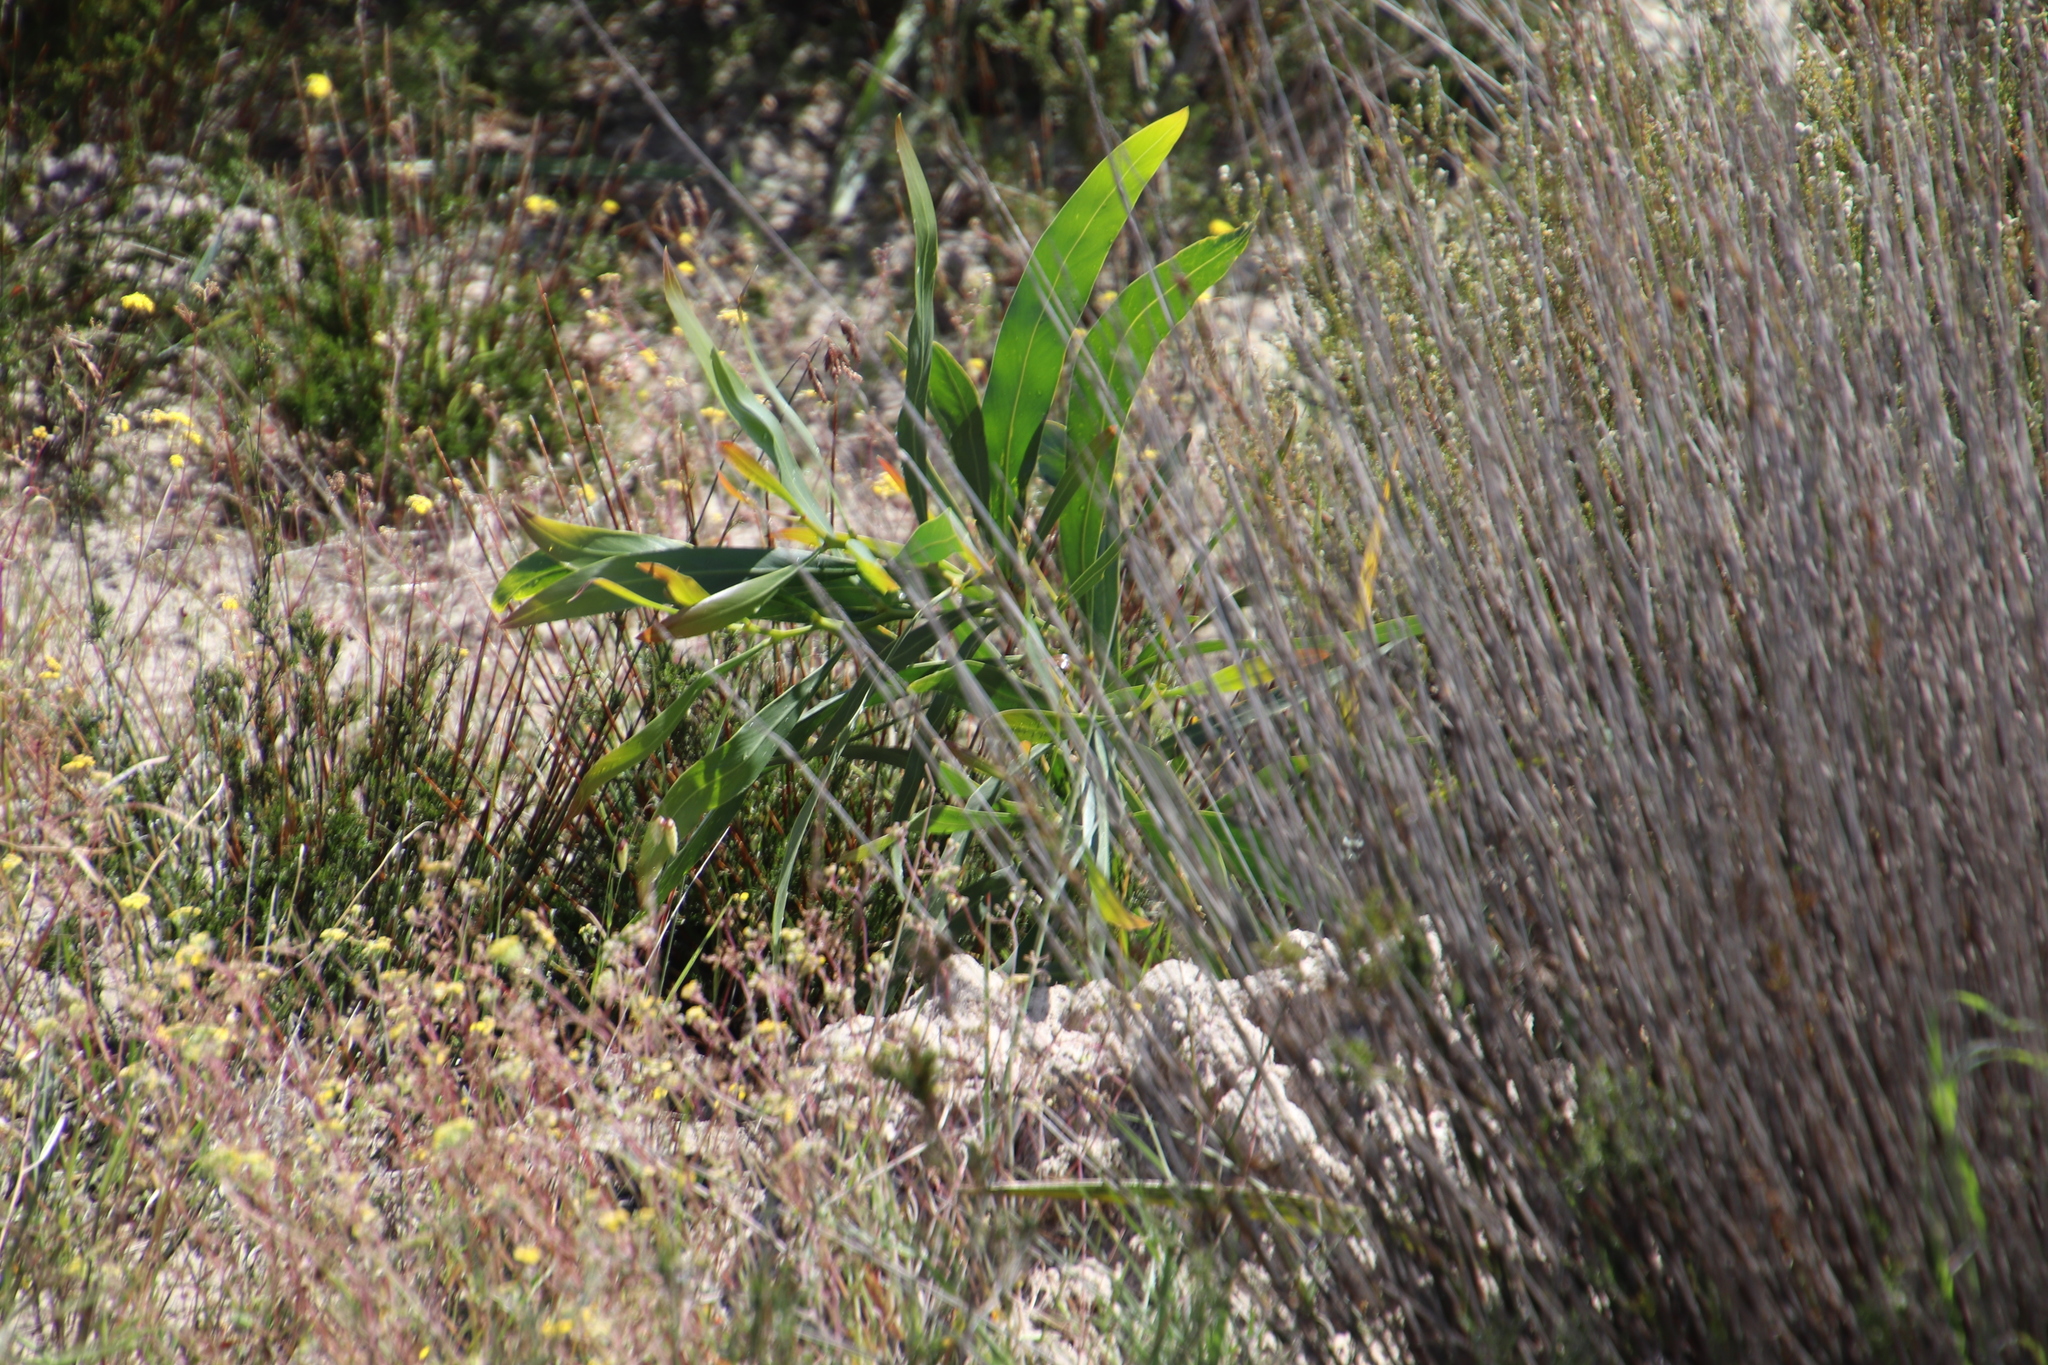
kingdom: Plantae
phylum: Tracheophyta
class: Magnoliopsida
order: Fabales
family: Fabaceae
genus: Acacia
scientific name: Acacia saligna
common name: Orange wattle
